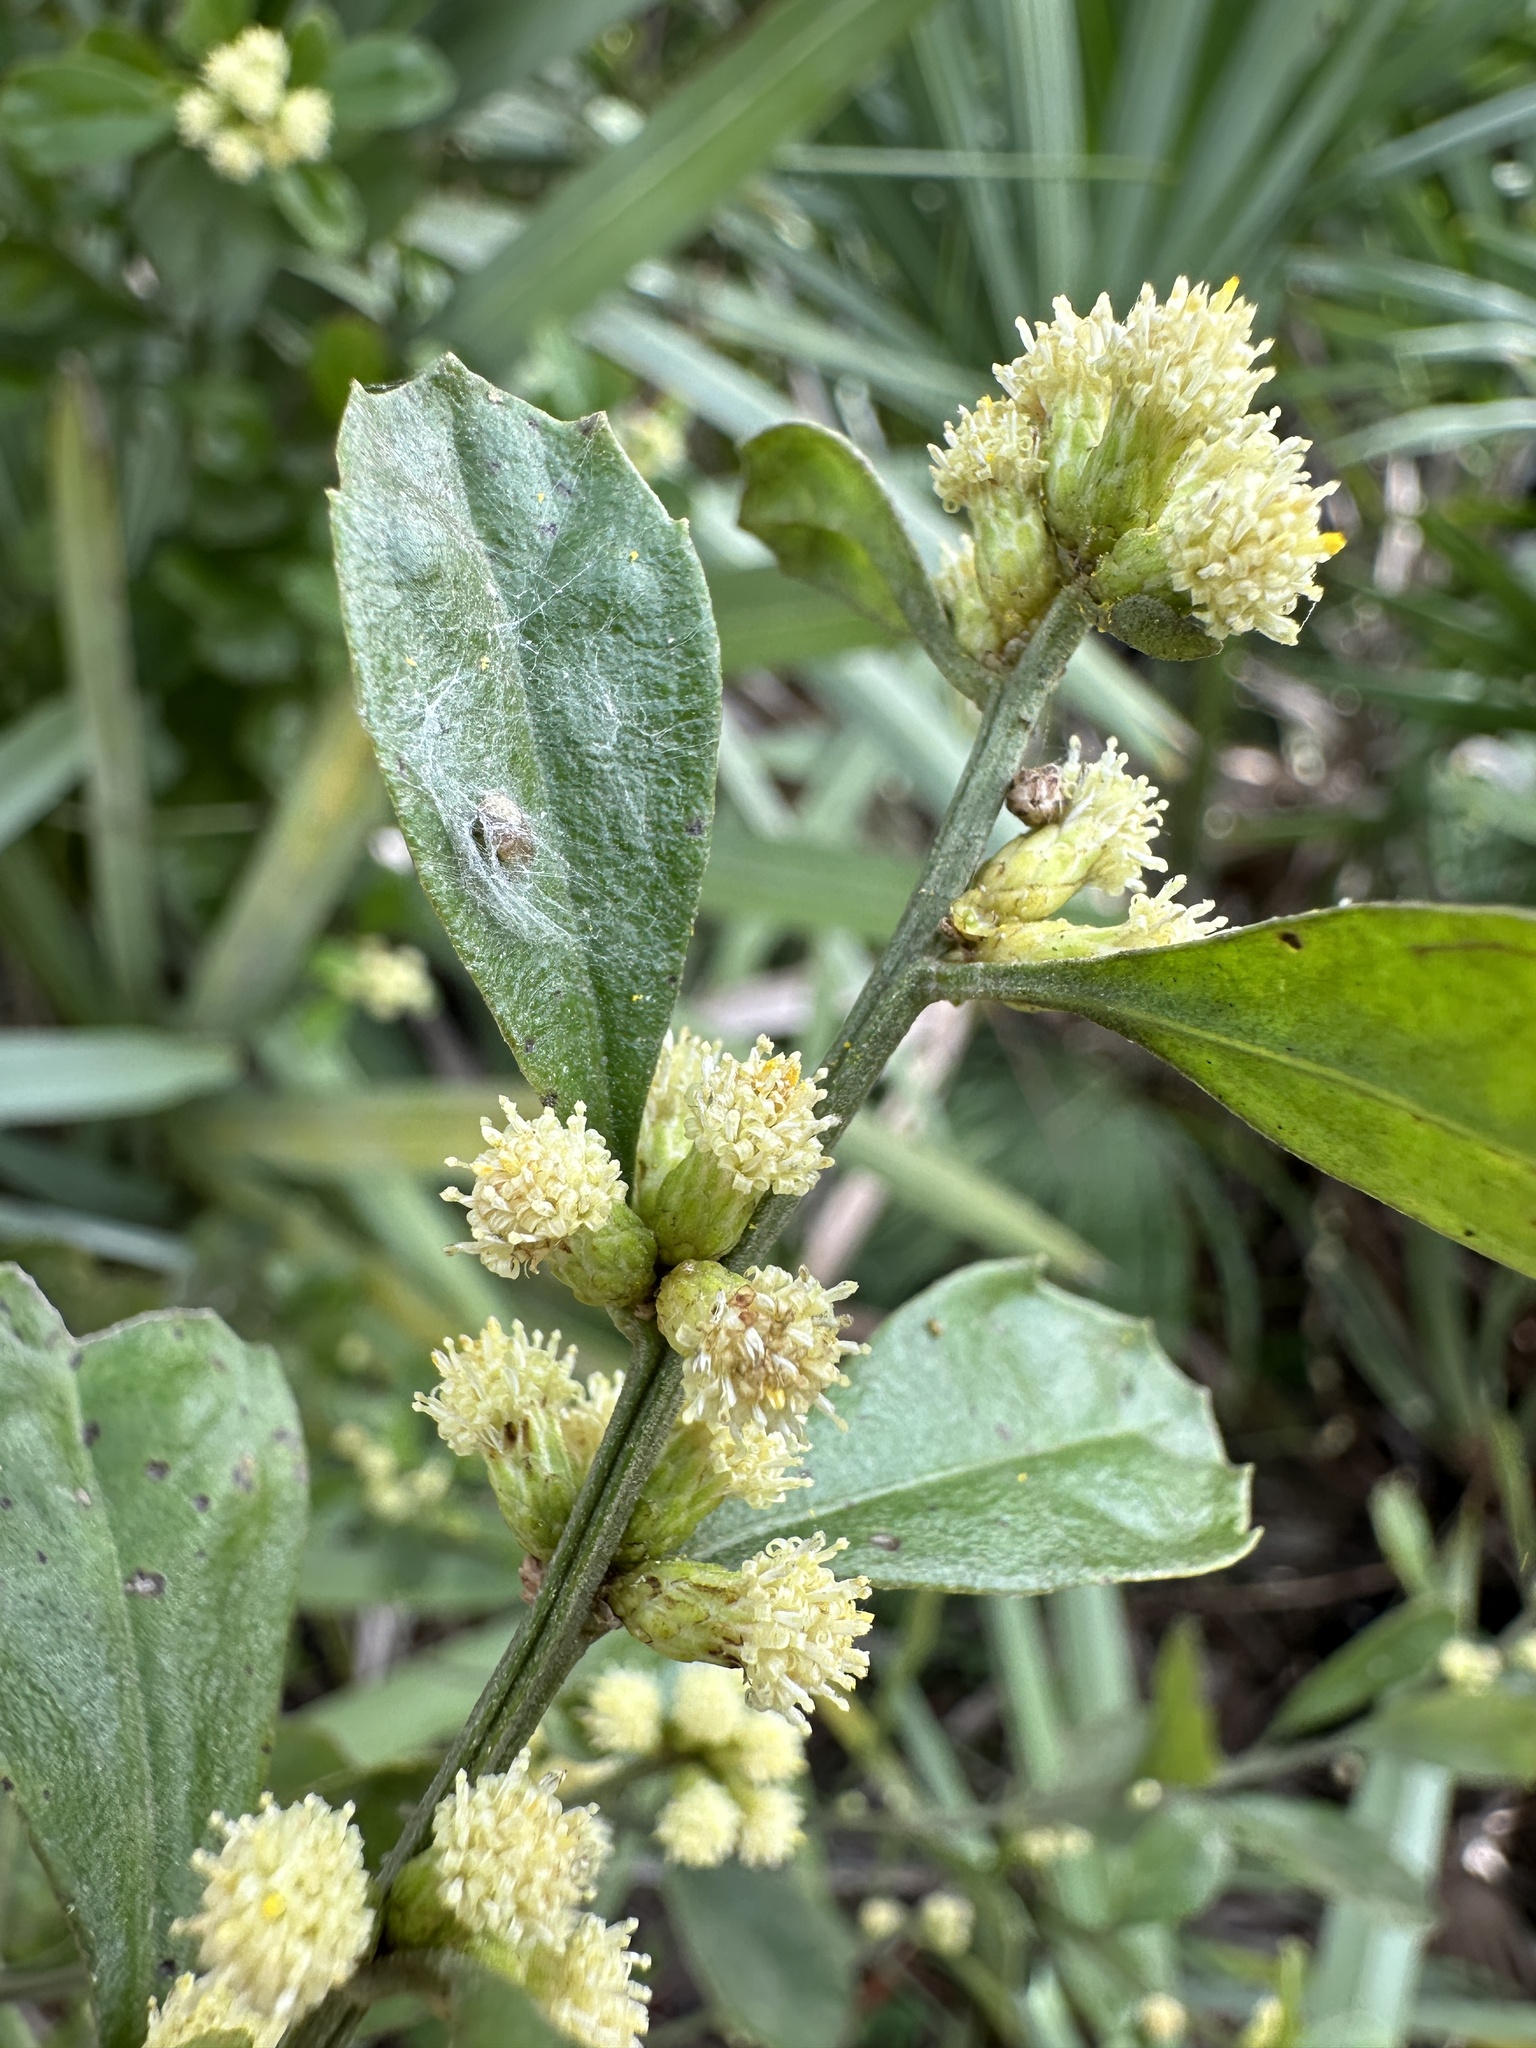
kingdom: Plantae
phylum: Tracheophyta
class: Magnoliopsida
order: Asterales
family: Asteraceae
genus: Baccharis
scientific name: Baccharis glomeruliflora
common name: Silverling groundsel bush
